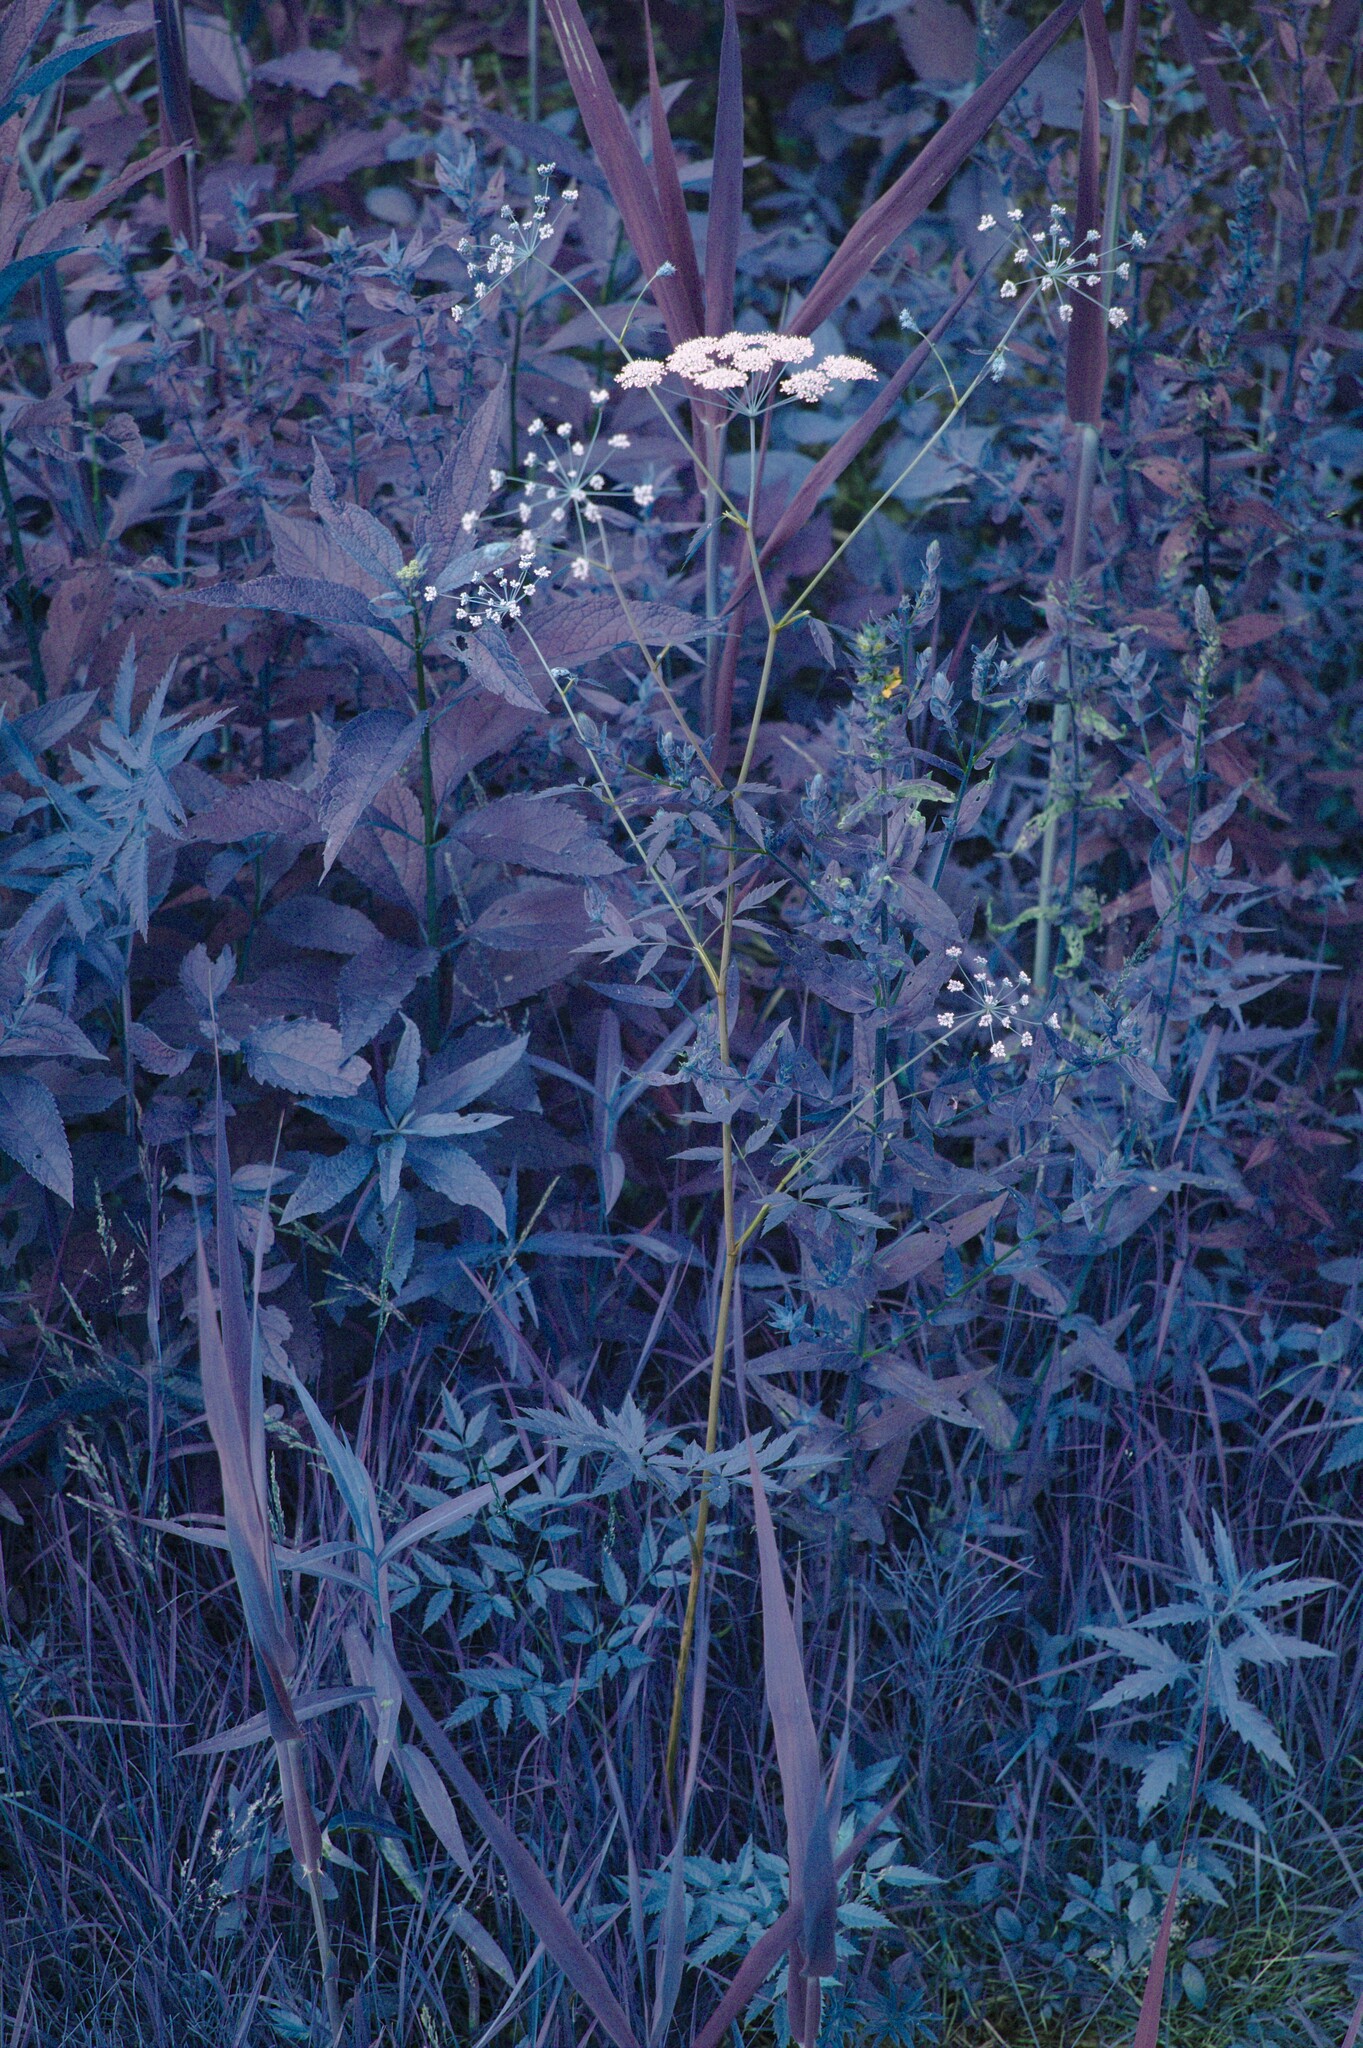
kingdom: Plantae
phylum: Tracheophyta
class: Magnoliopsida
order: Apiales
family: Apiaceae
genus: Cicuta
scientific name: Cicuta maculata
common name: Spotted cowbane
